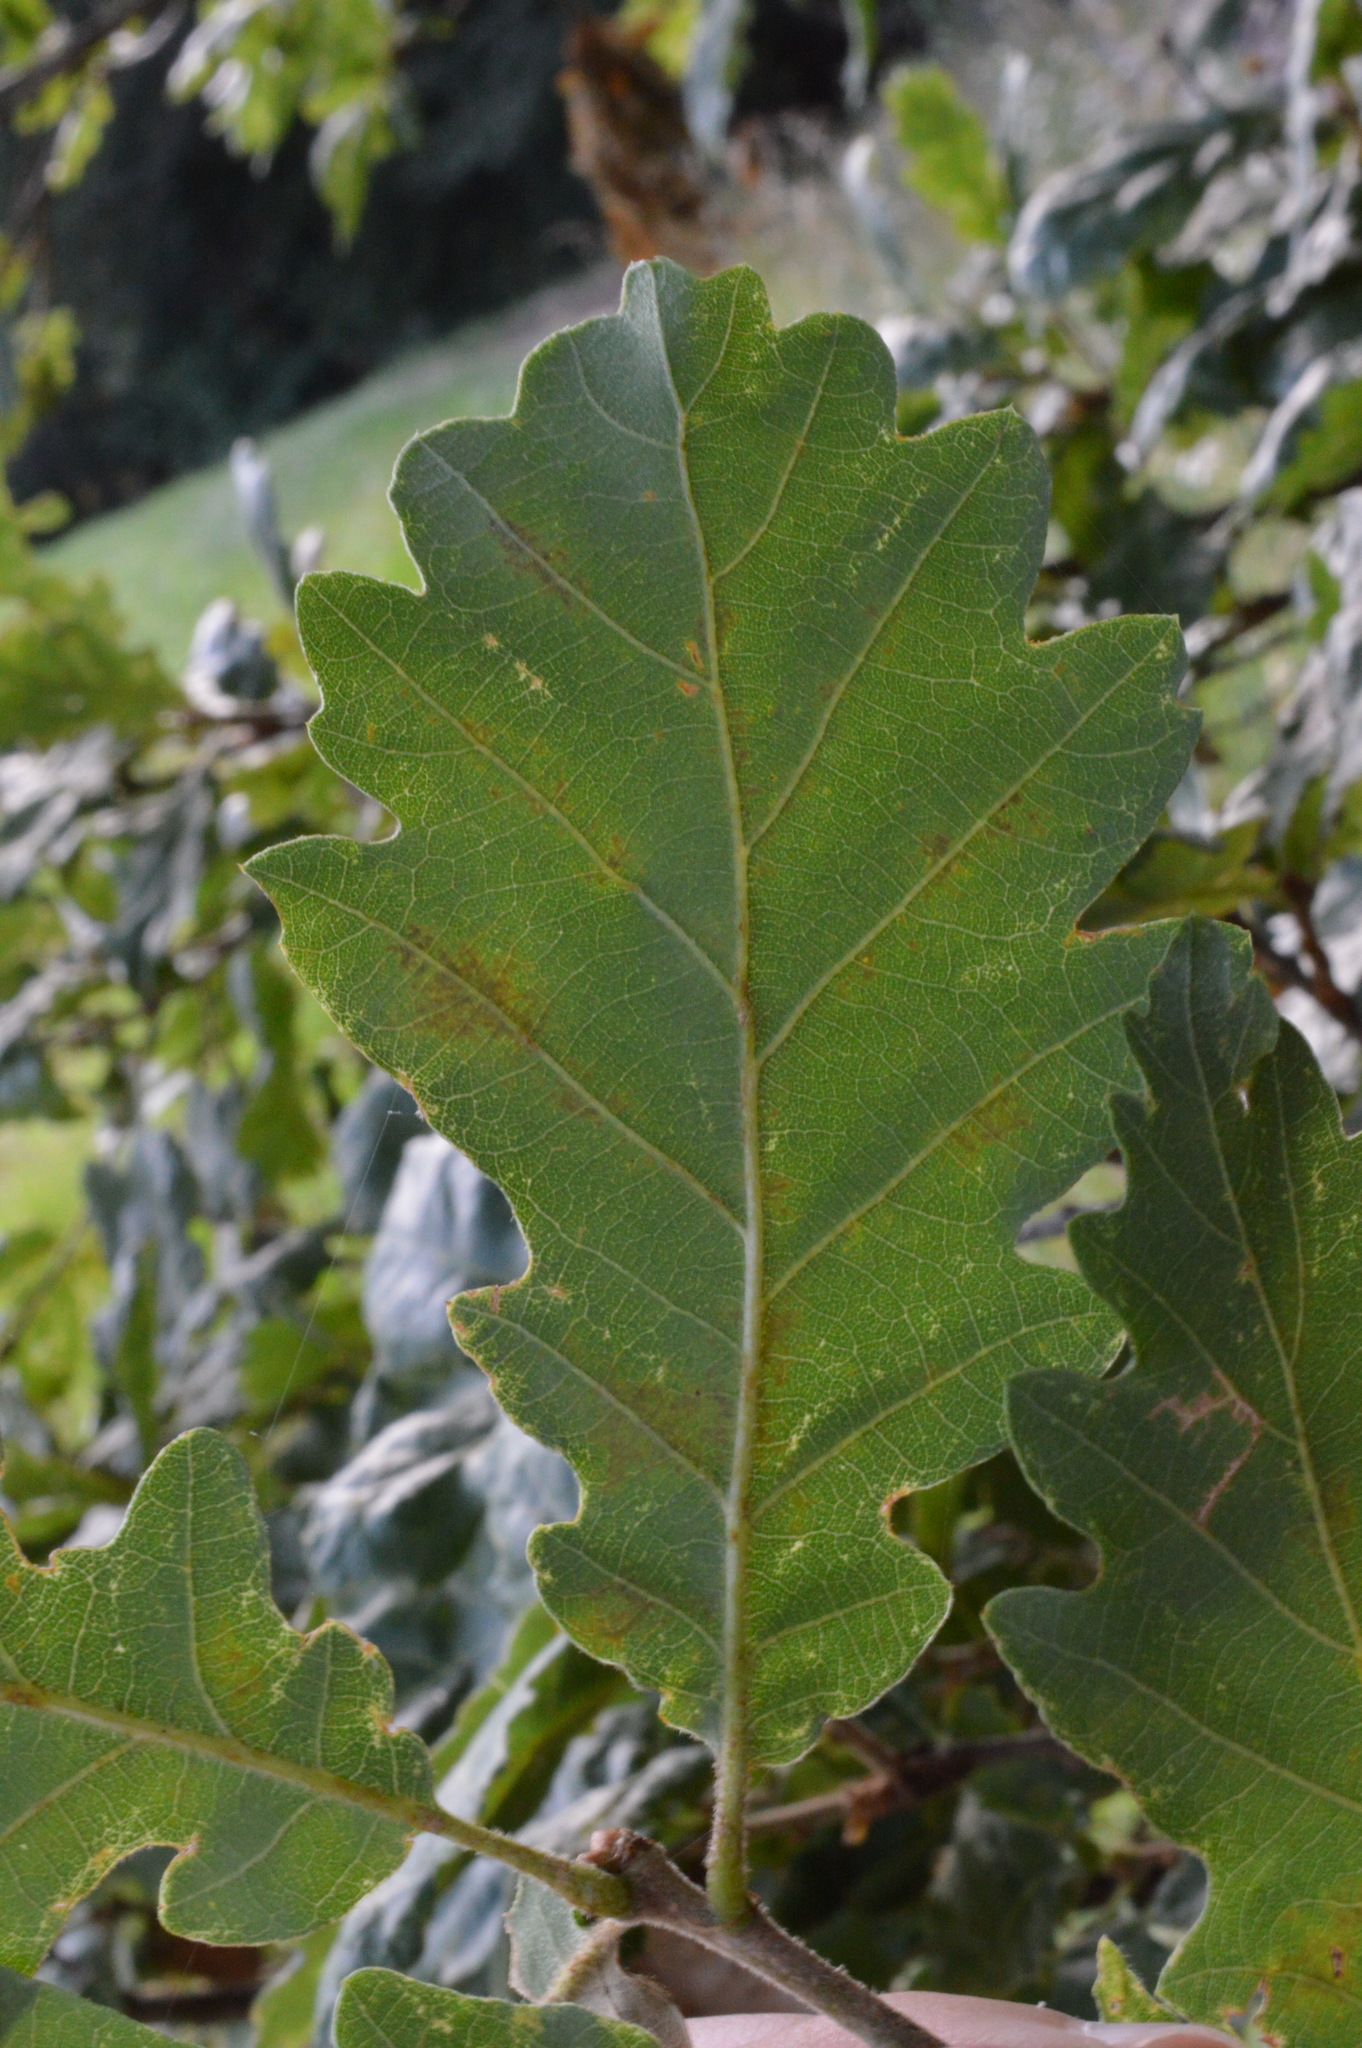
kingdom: Plantae
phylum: Tracheophyta
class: Magnoliopsida
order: Fagales
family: Fagaceae
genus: Quercus
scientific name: Quercus petraea
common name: Sessile oak
